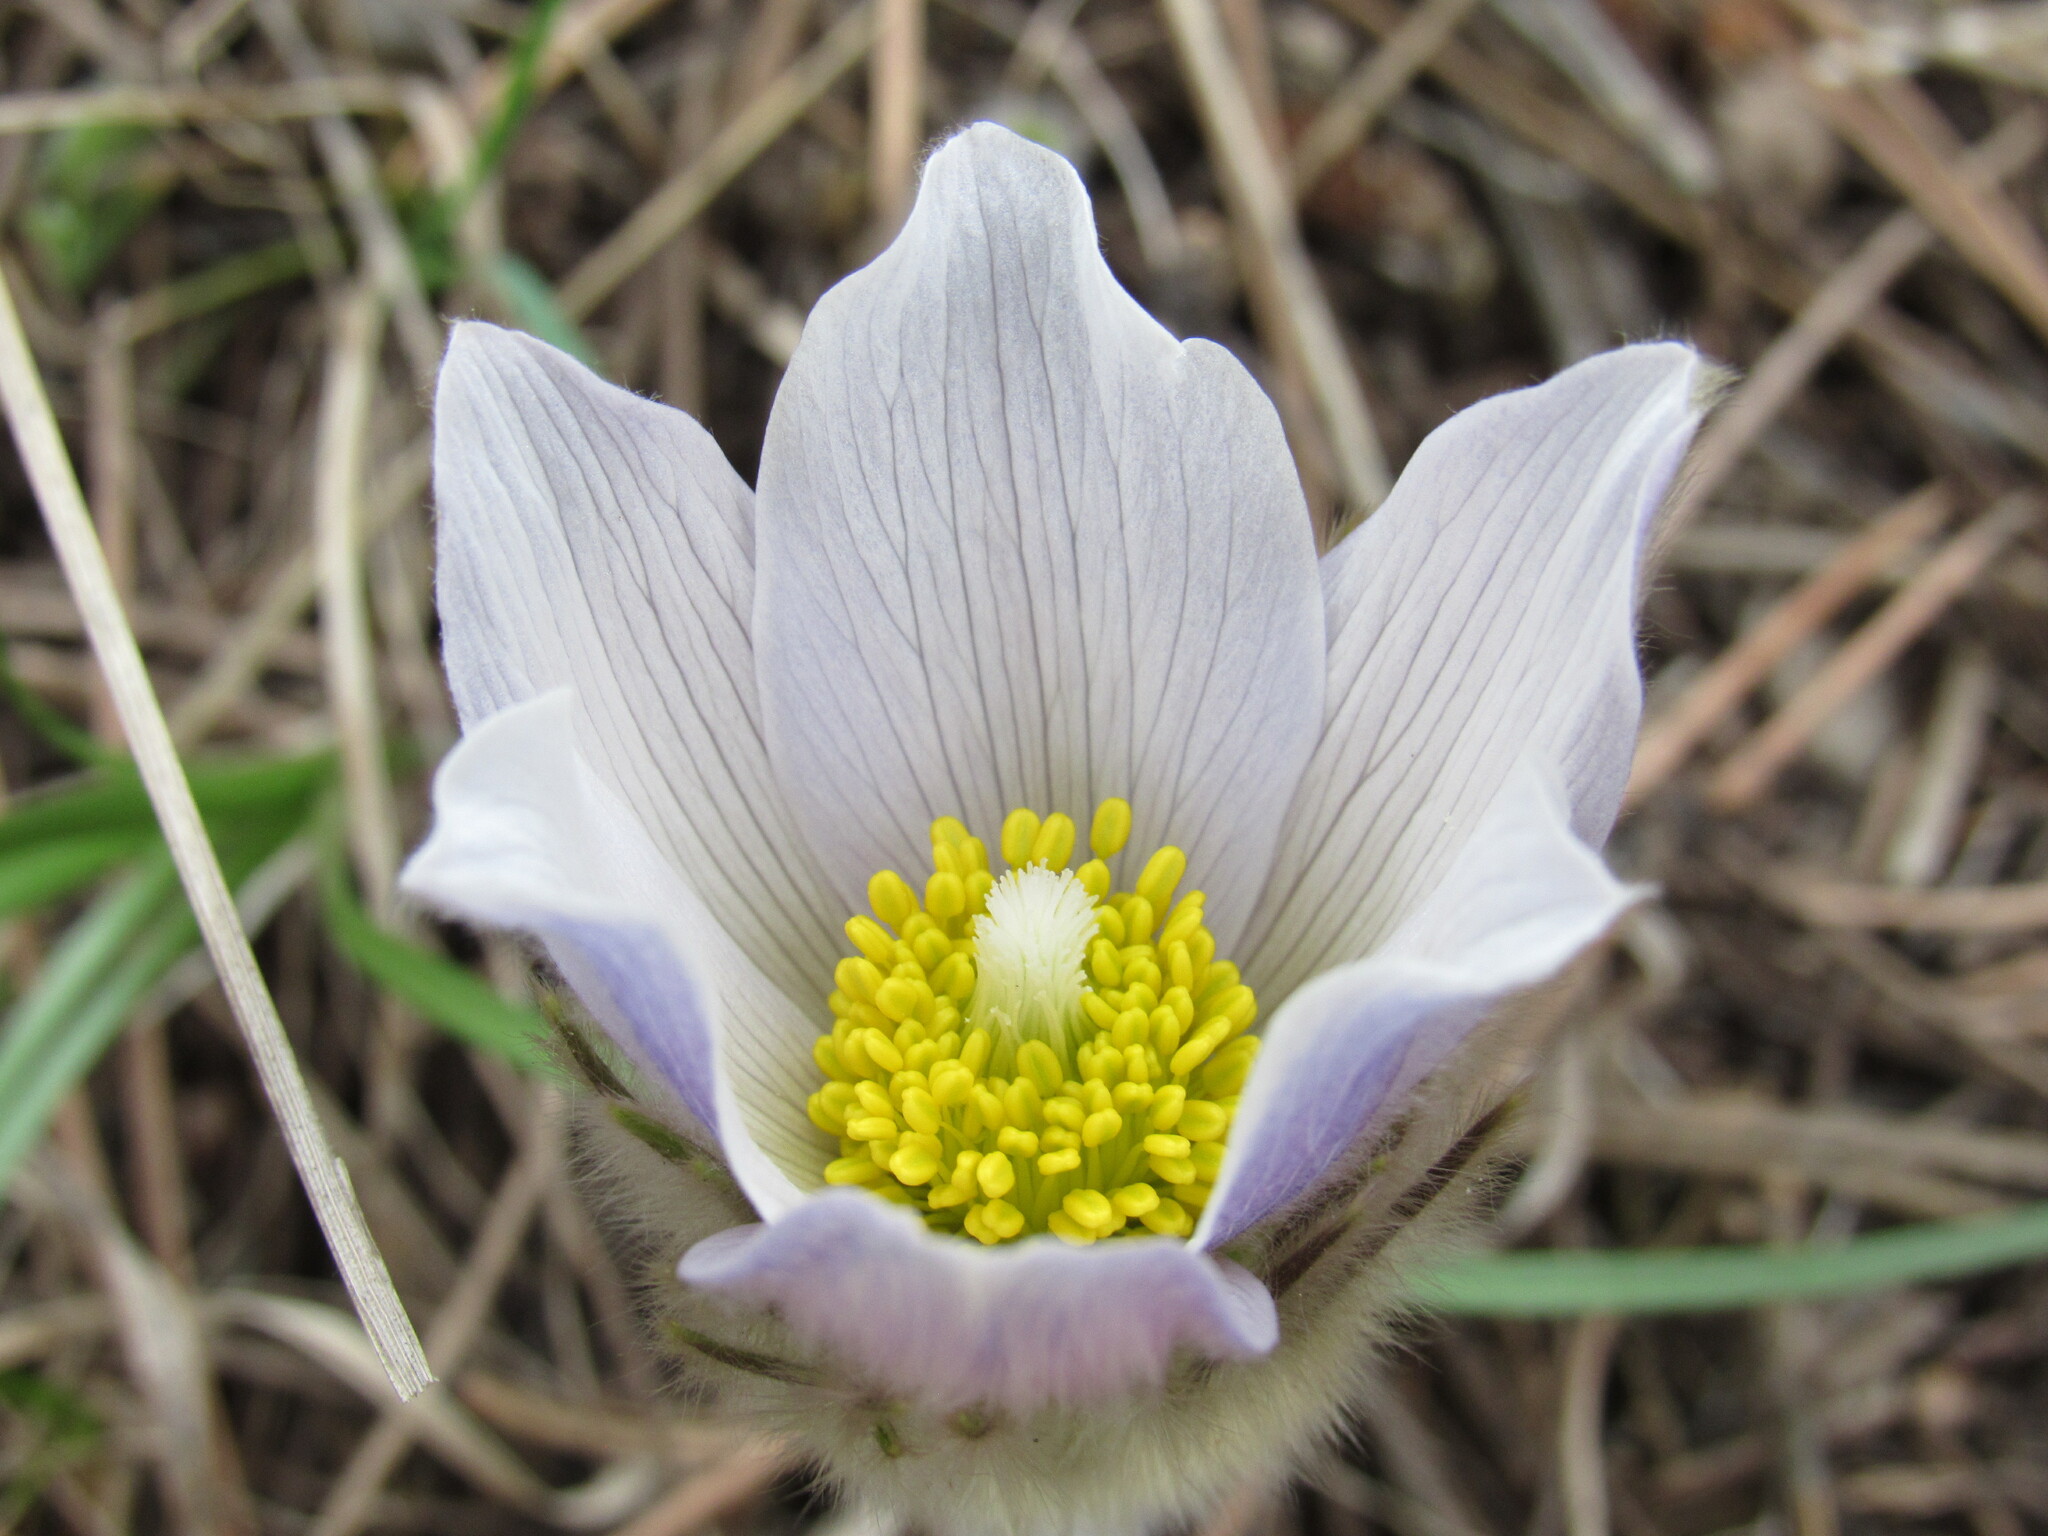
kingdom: Plantae
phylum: Tracheophyta
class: Magnoliopsida
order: Ranunculales
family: Ranunculaceae
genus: Pulsatilla
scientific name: Pulsatilla nuttalliana
